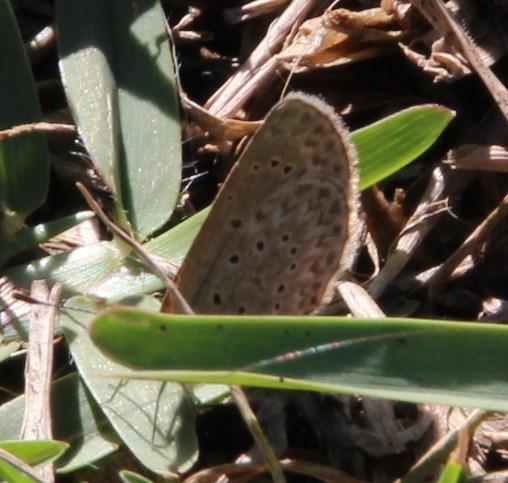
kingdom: Animalia
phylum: Arthropoda
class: Insecta
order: Lepidoptera
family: Lycaenidae
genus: Zizeeria
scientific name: Zizeeria knysna
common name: African grass blue
